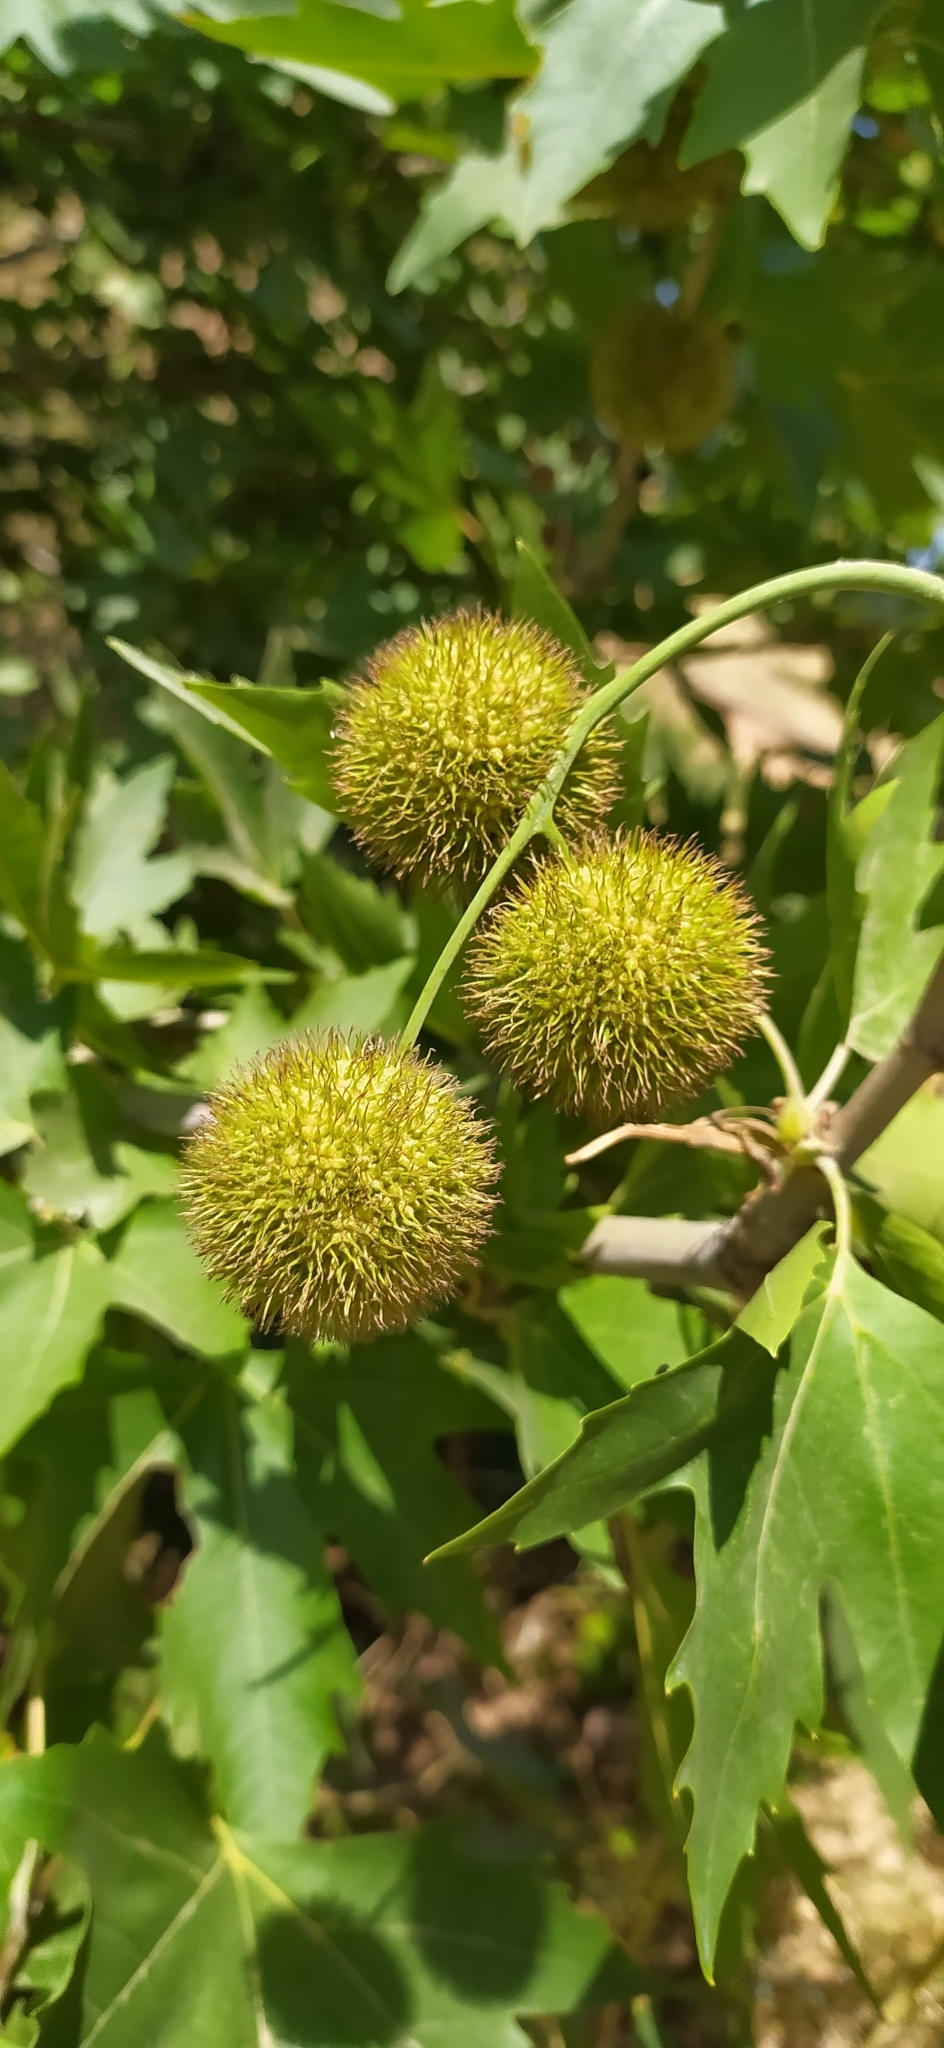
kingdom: Plantae
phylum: Tracheophyta
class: Magnoliopsida
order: Proteales
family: Platanaceae
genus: Platanus
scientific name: Platanus orientalis
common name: Oriental plane
